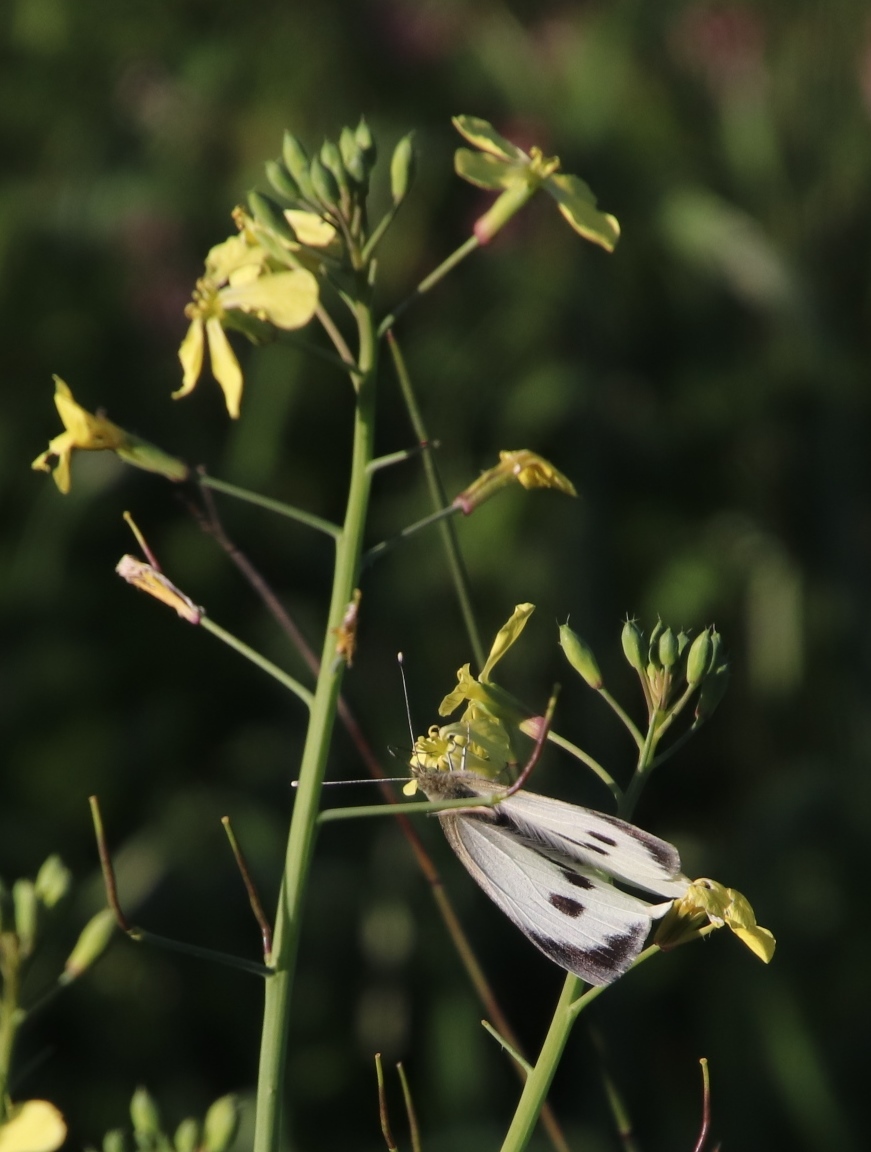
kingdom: Animalia
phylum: Arthropoda
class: Insecta
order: Lepidoptera
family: Pieridae
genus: Pieris
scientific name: Pieris brassicae
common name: Large white
